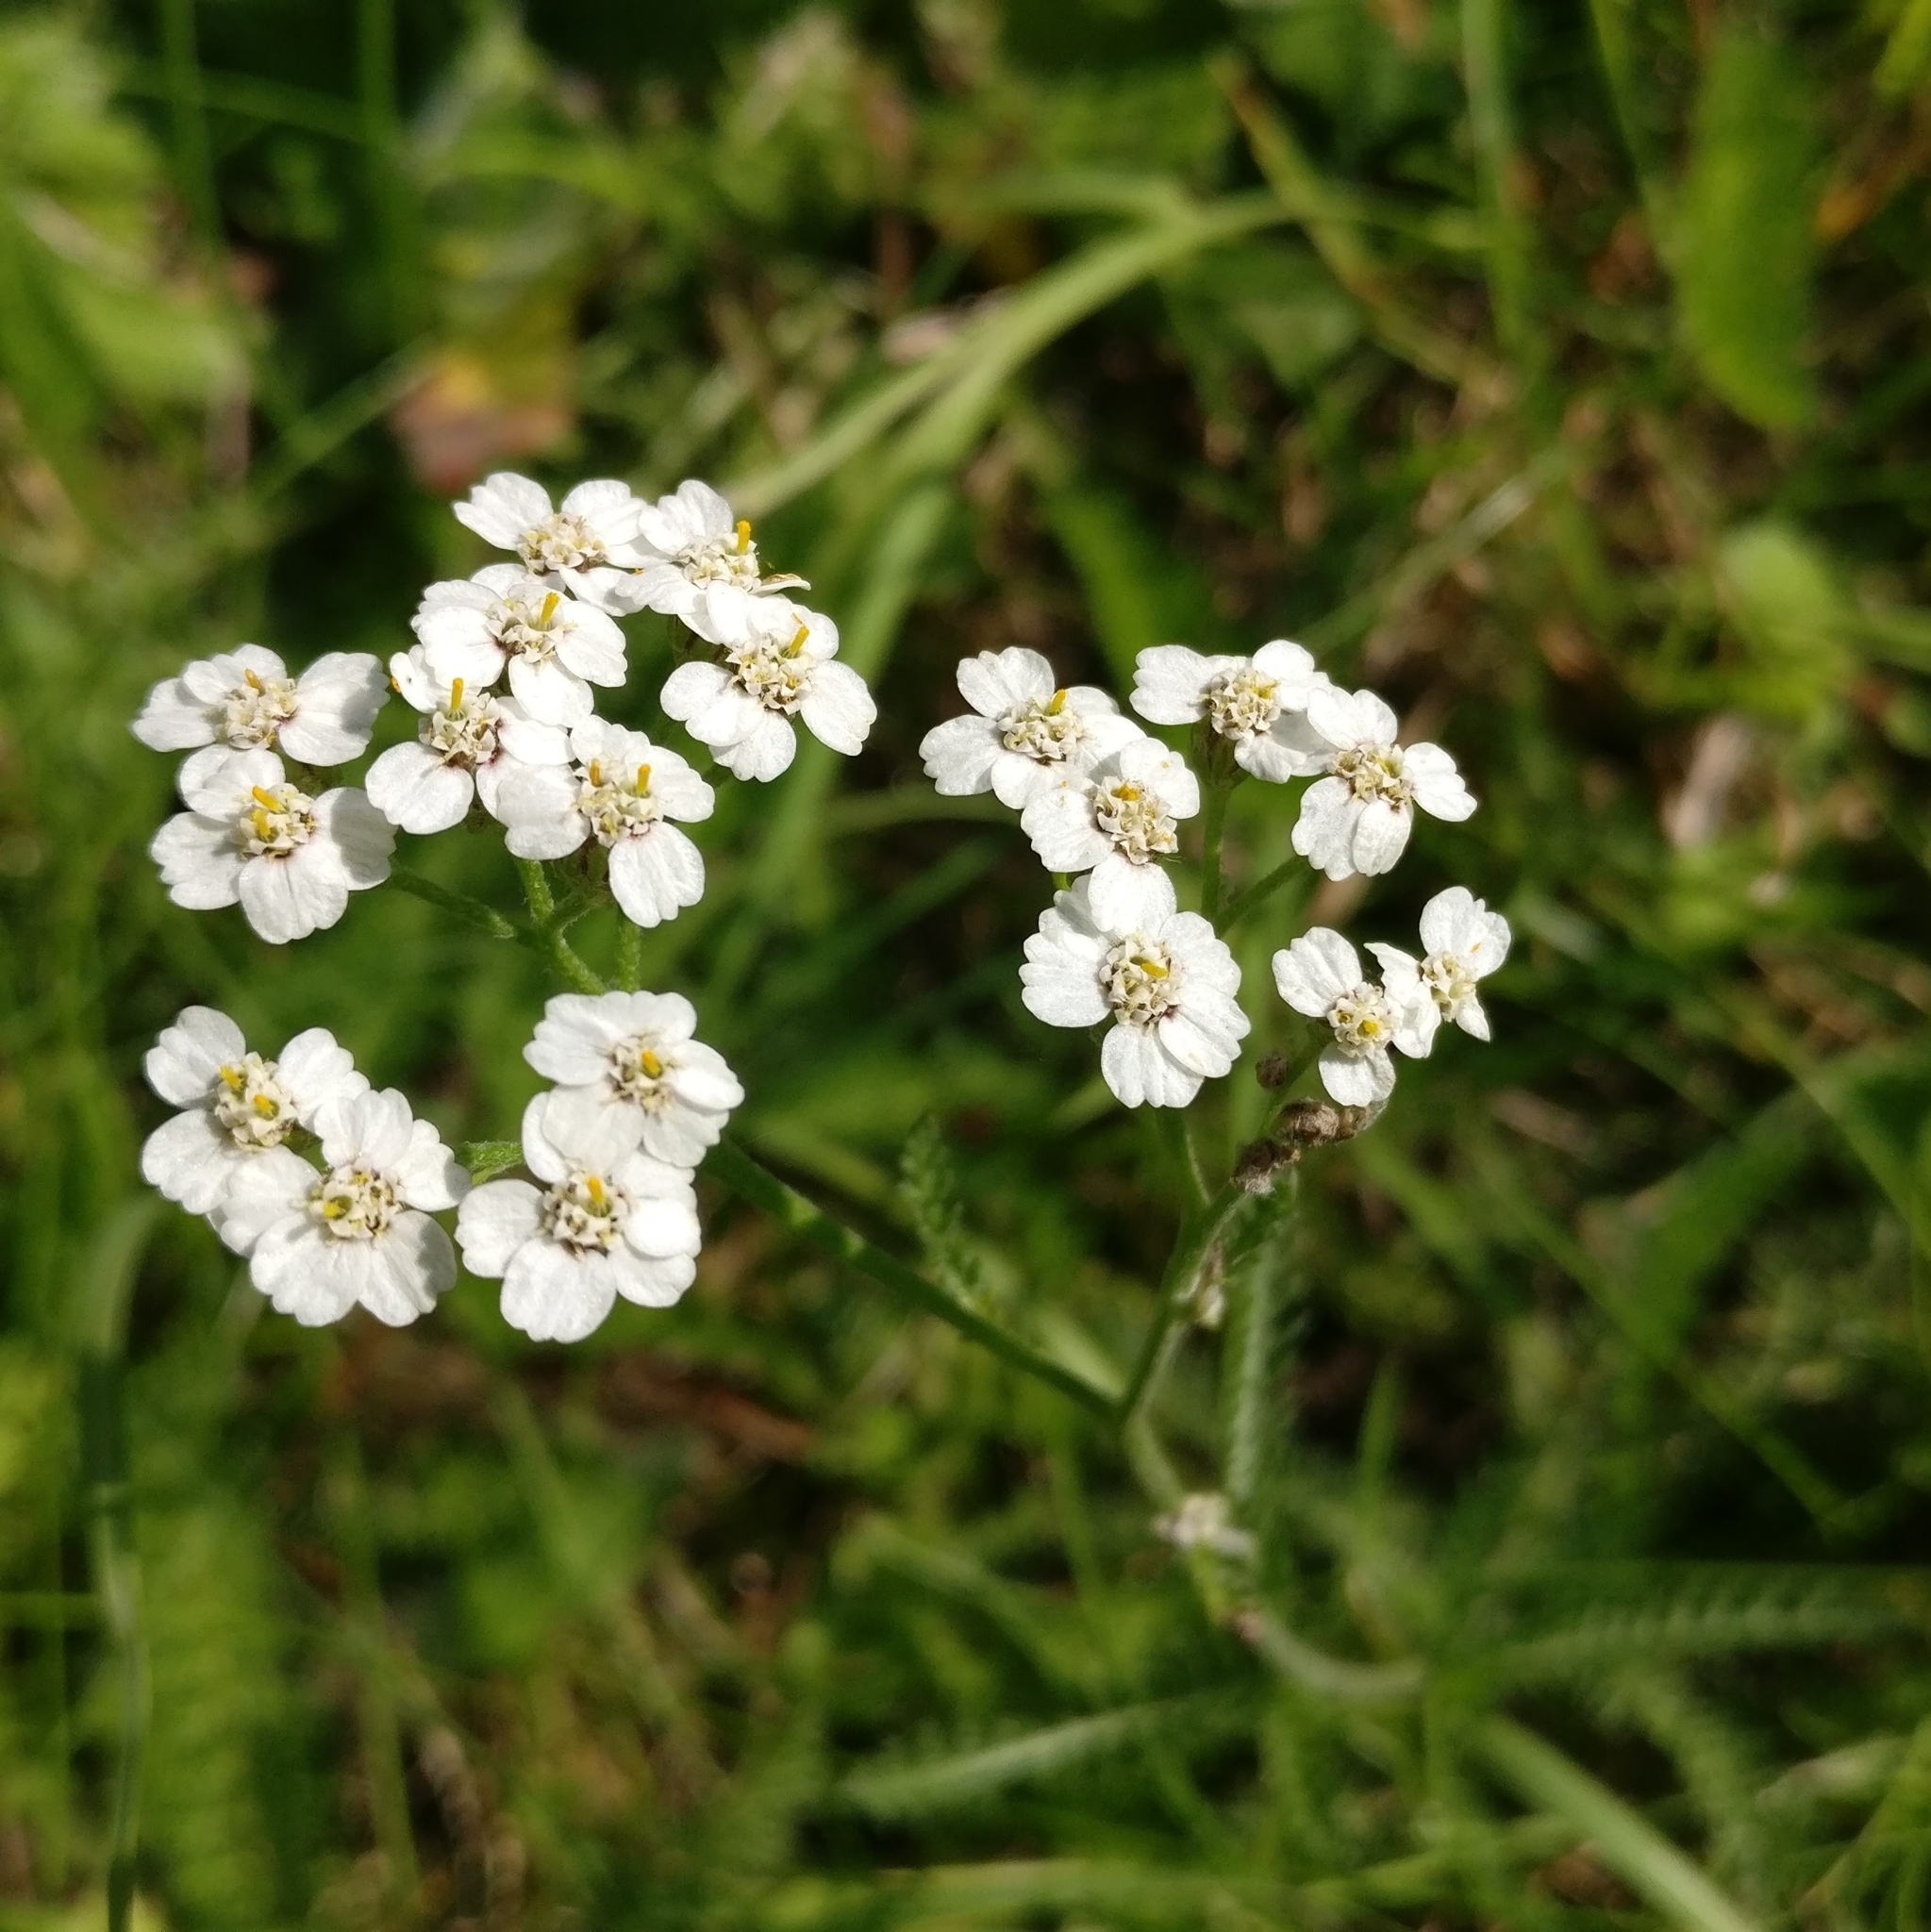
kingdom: Plantae
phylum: Tracheophyta
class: Magnoliopsida
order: Asterales
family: Asteraceae
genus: Achillea
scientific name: Achillea millefolium
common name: Yarrow
